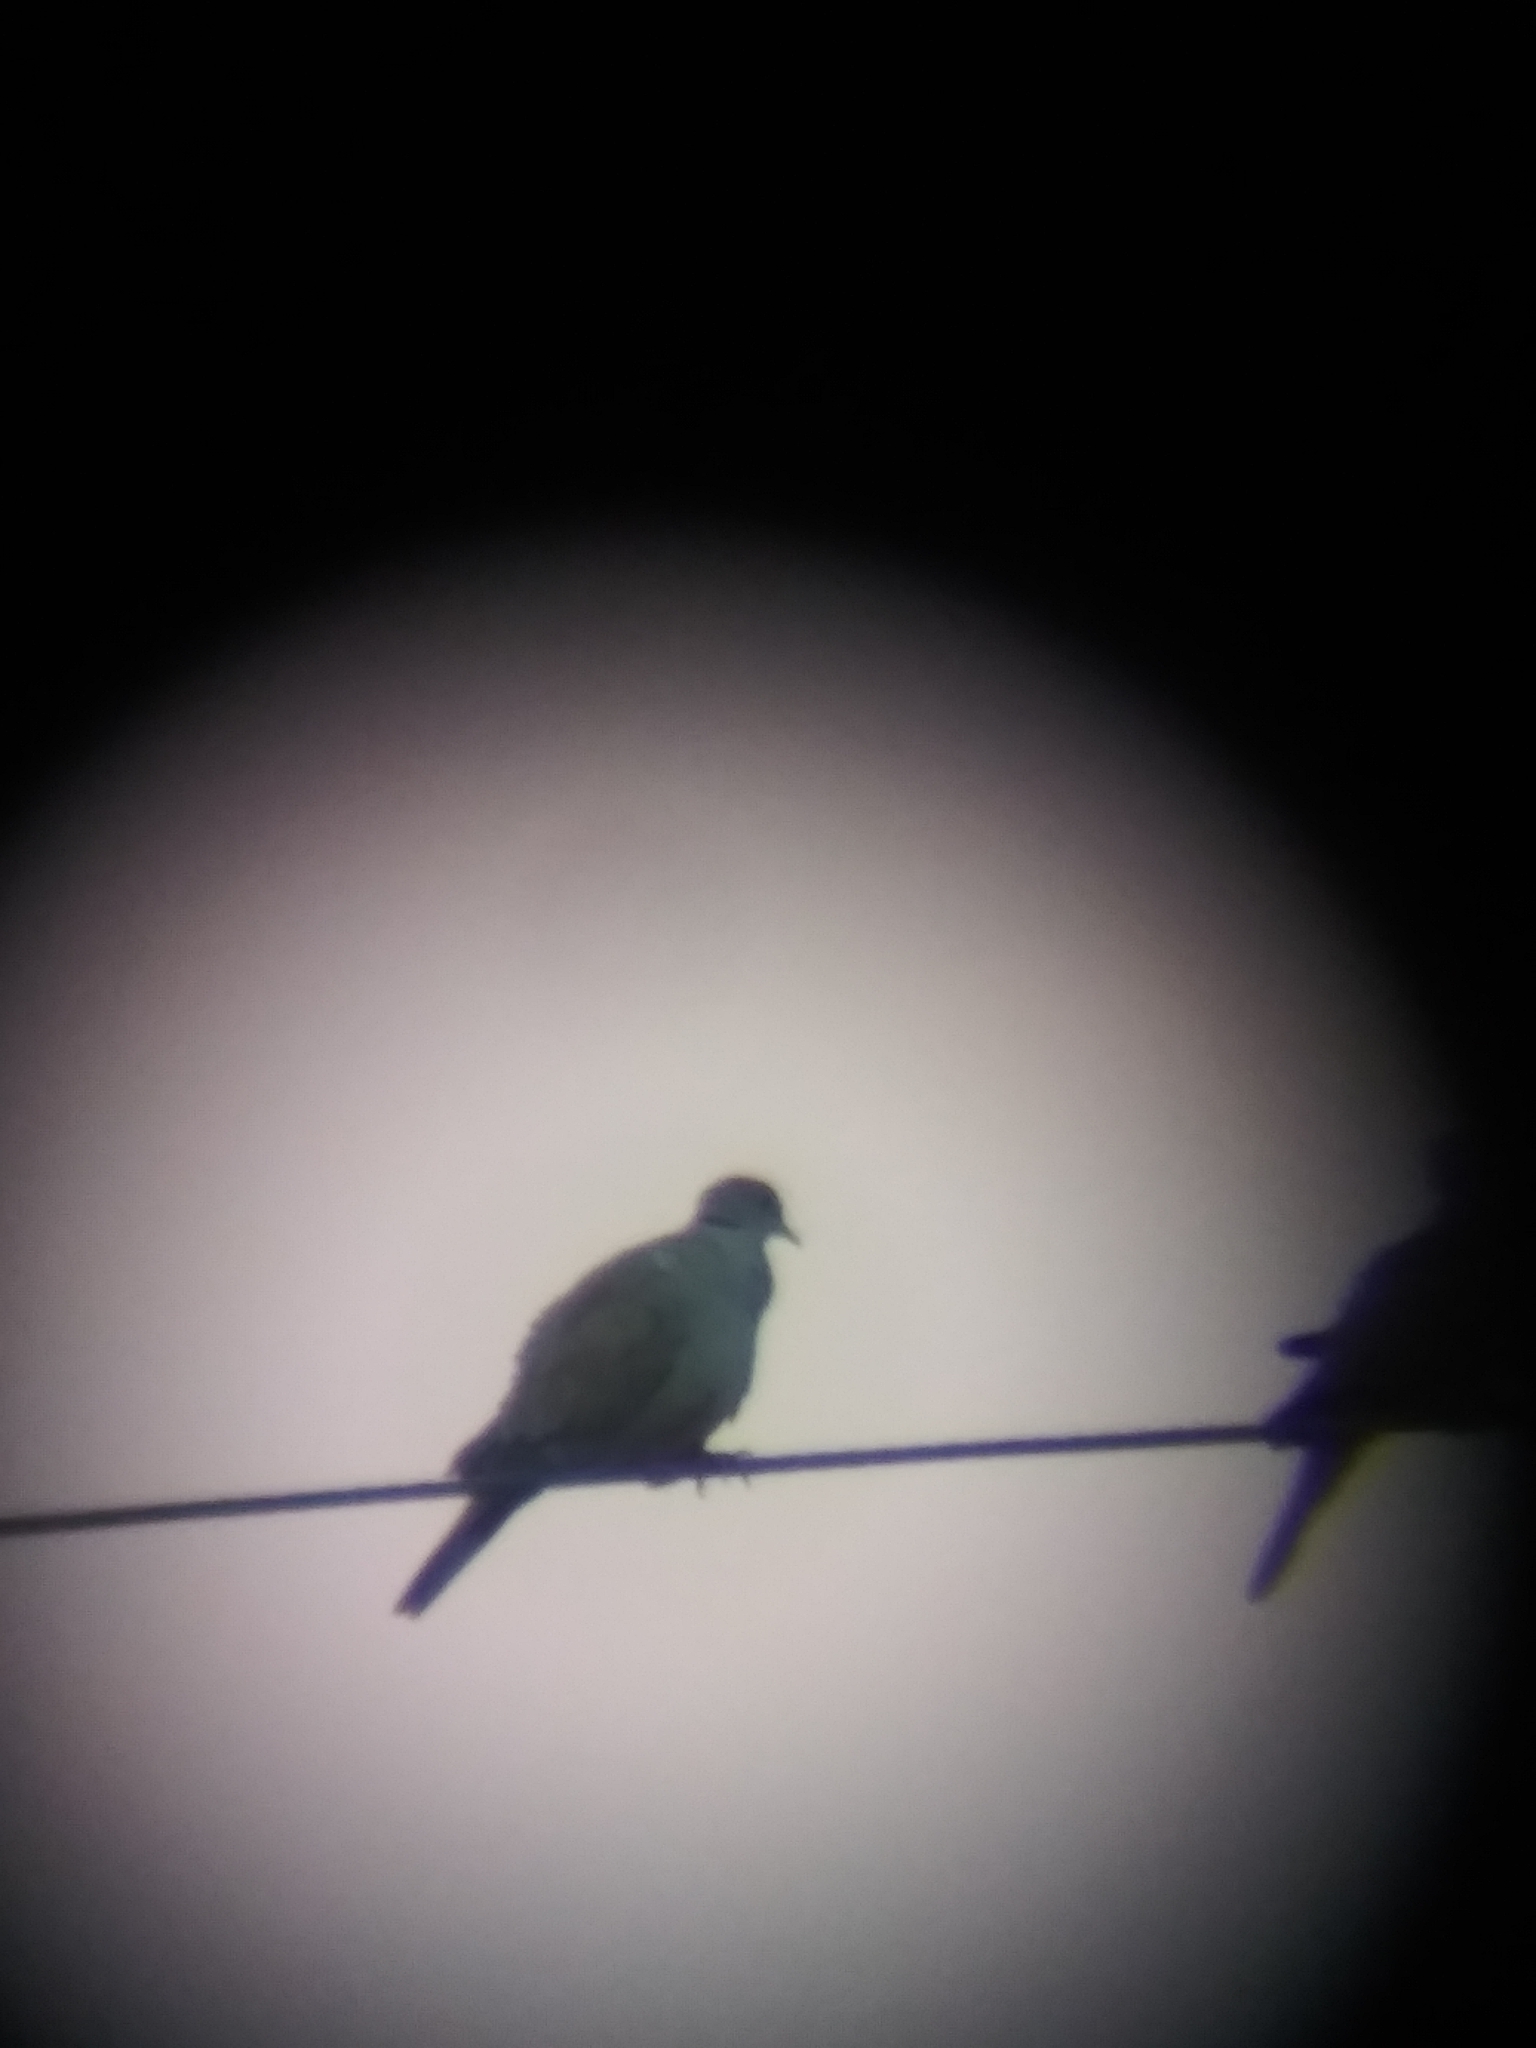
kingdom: Animalia
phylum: Chordata
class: Aves
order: Columbiformes
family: Columbidae
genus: Streptopelia
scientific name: Streptopelia decaocto
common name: Eurasian collared dove
